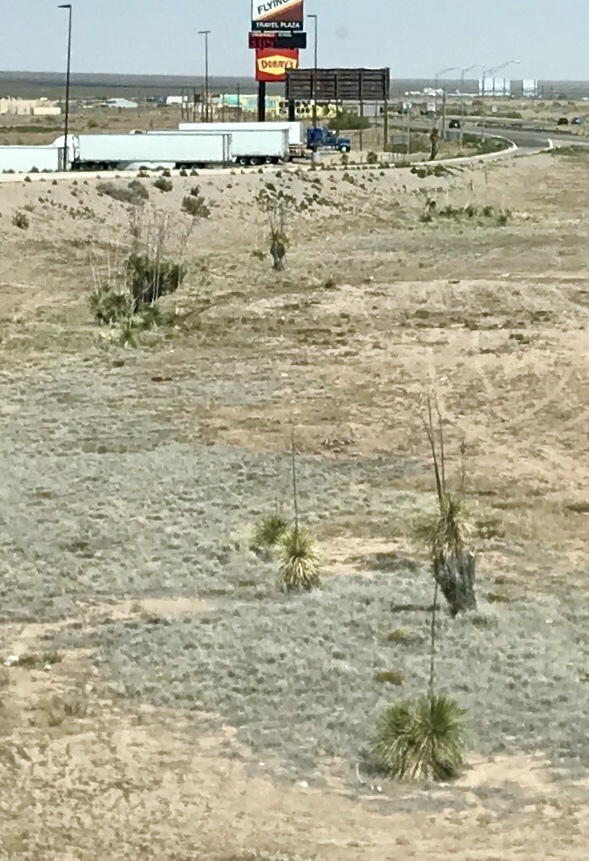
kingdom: Plantae
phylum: Tracheophyta
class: Liliopsida
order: Asparagales
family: Asparagaceae
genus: Yucca
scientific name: Yucca elata
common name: Palmella
